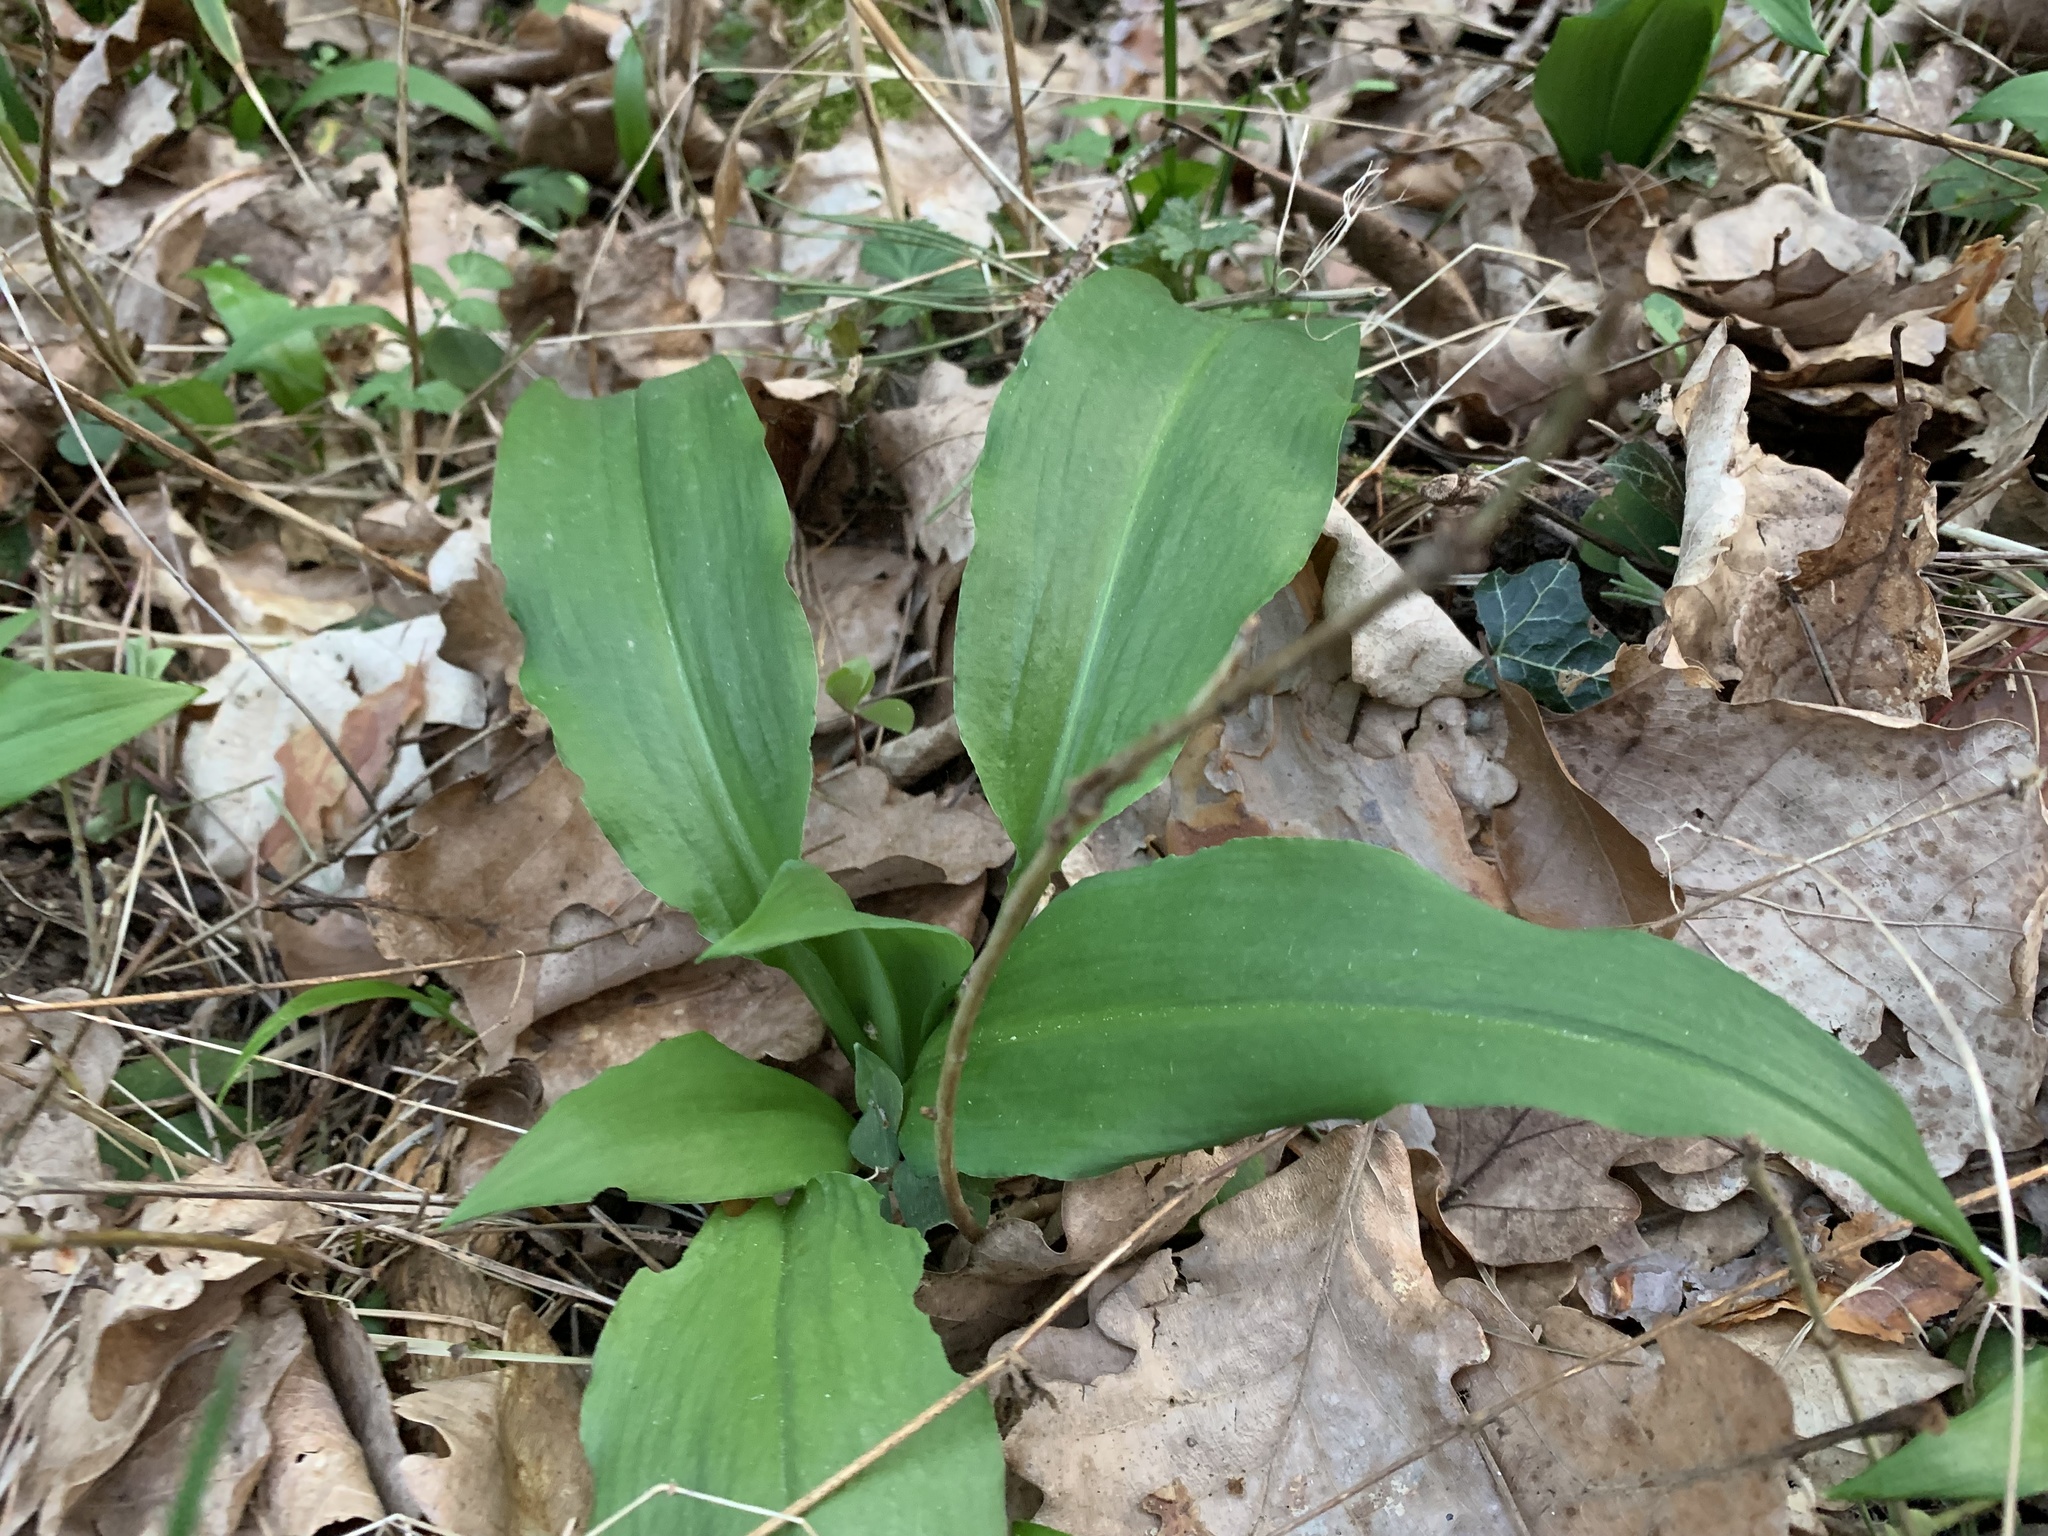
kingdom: Plantae
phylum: Tracheophyta
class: Liliopsida
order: Asparagales
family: Amaryllidaceae
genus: Allium
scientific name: Allium ursinum
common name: Ramsons
